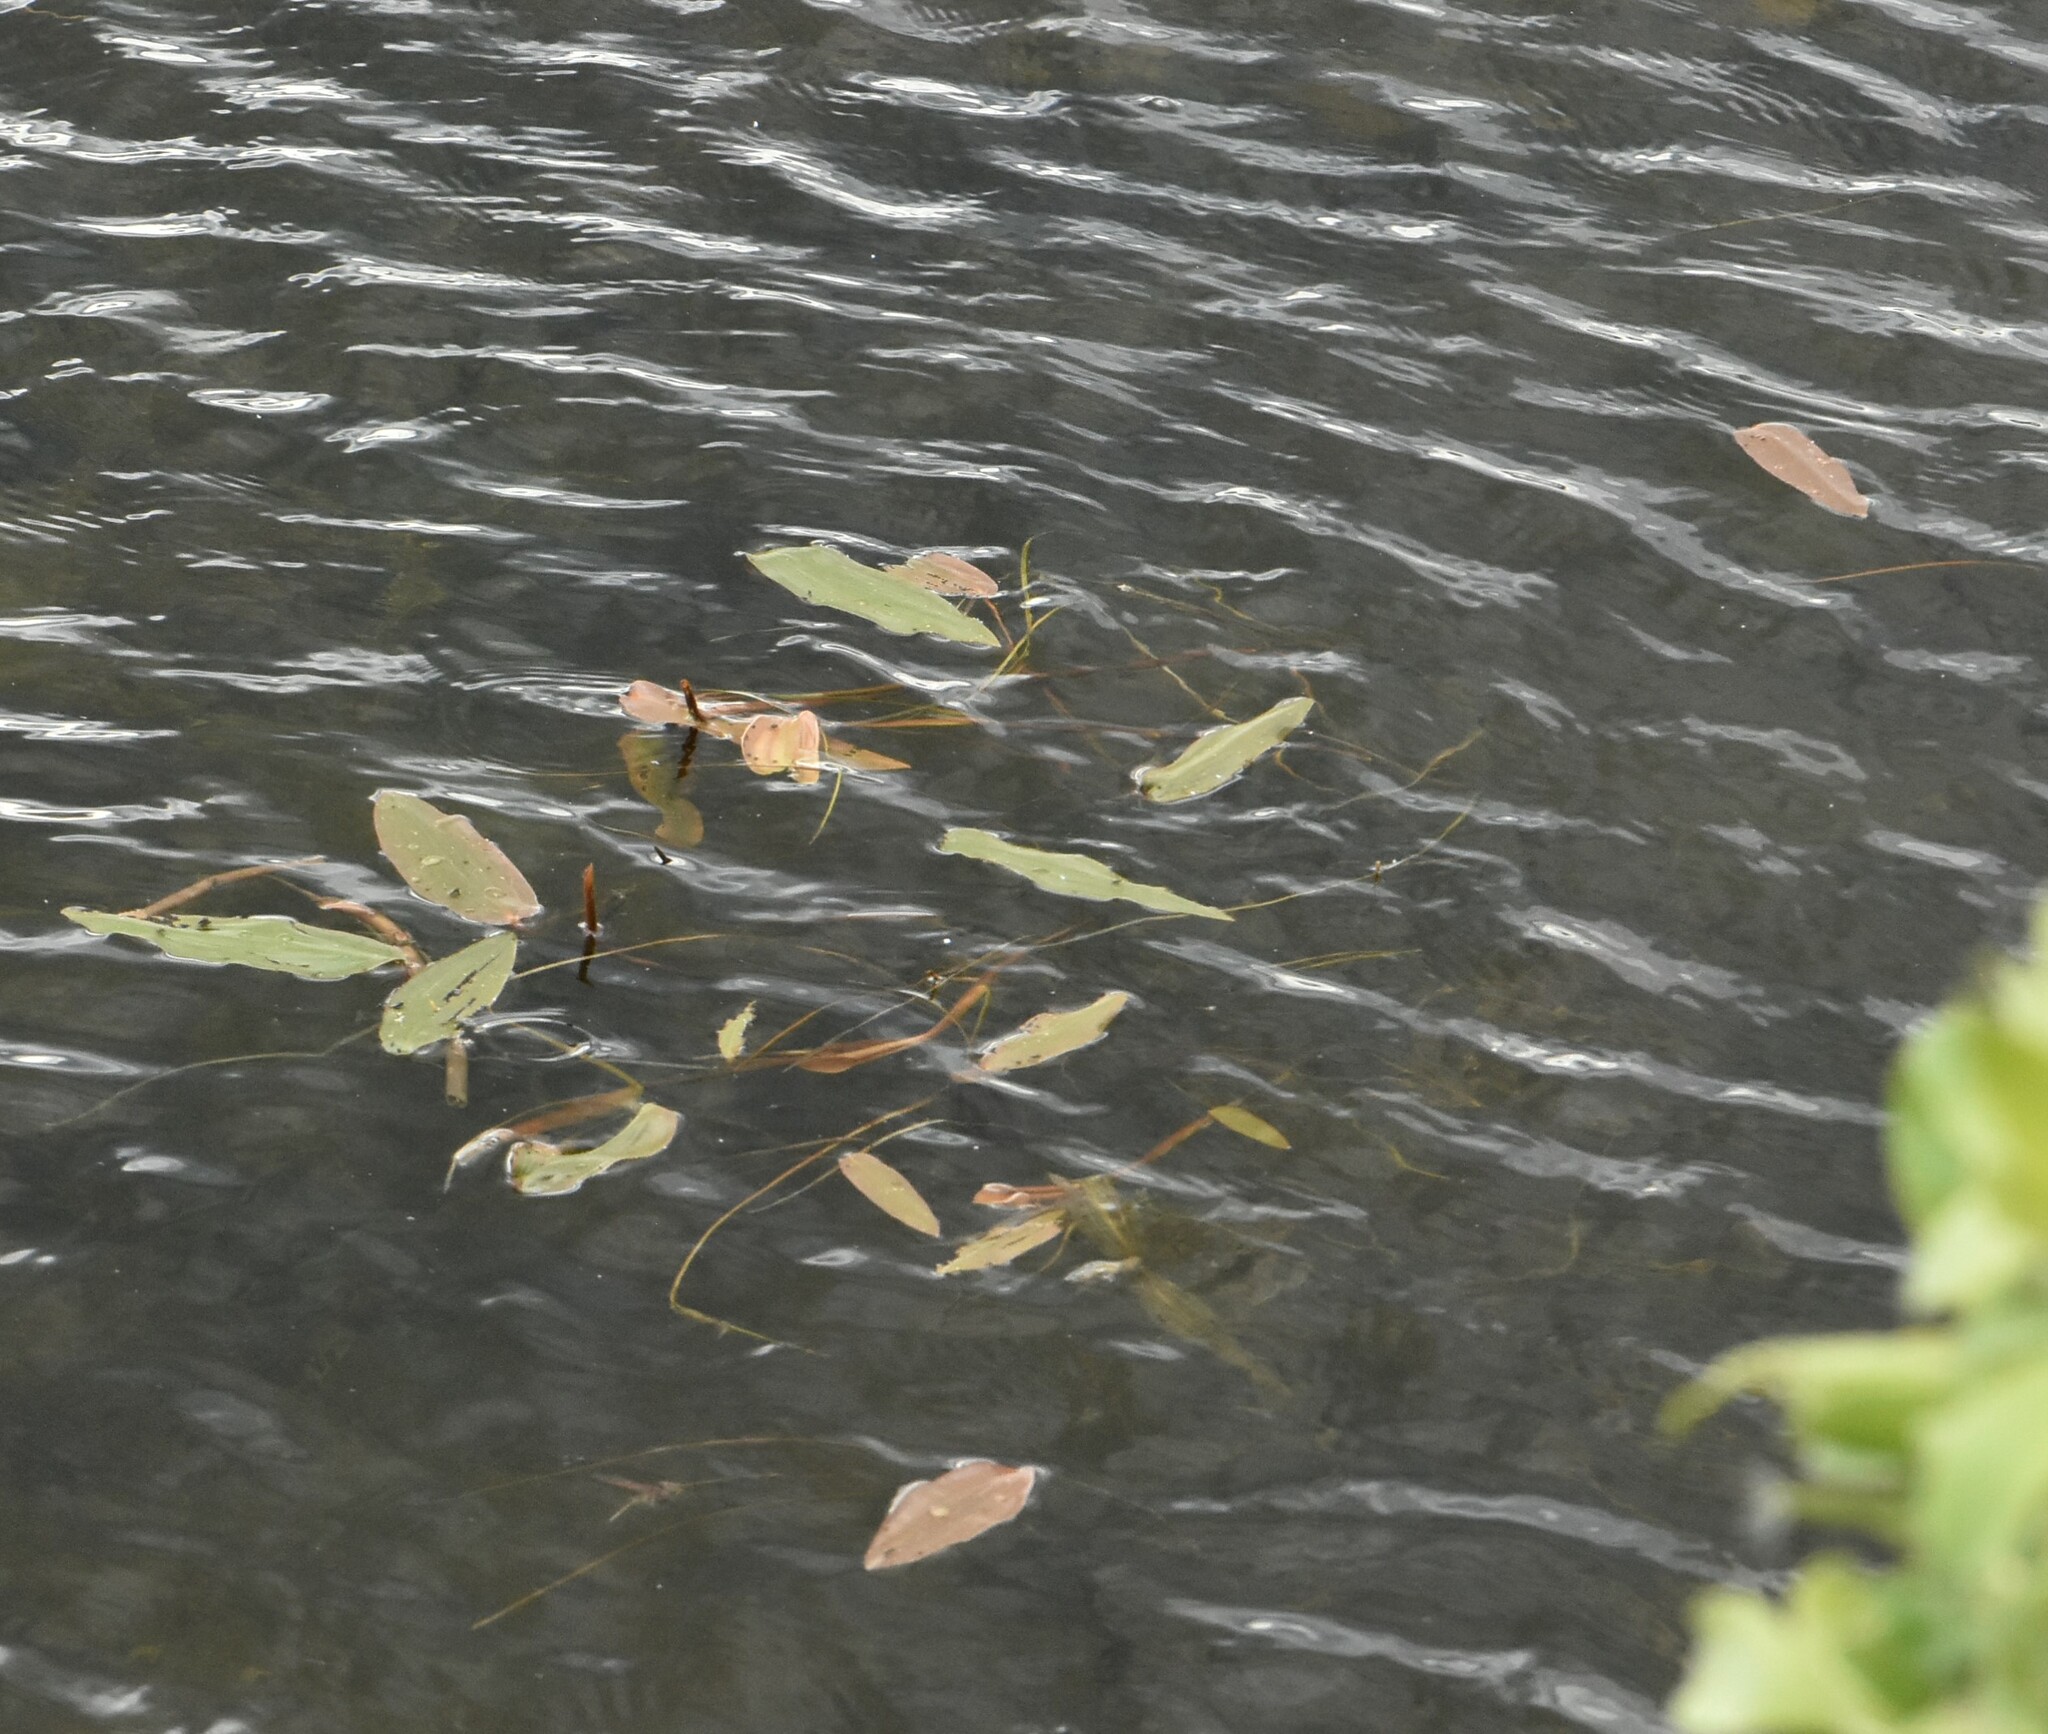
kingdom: Plantae
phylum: Tracheophyta
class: Liliopsida
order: Alismatales
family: Potamogetonaceae
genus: Potamogeton
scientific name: Potamogeton natans
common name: Broad-leaved pondweed
